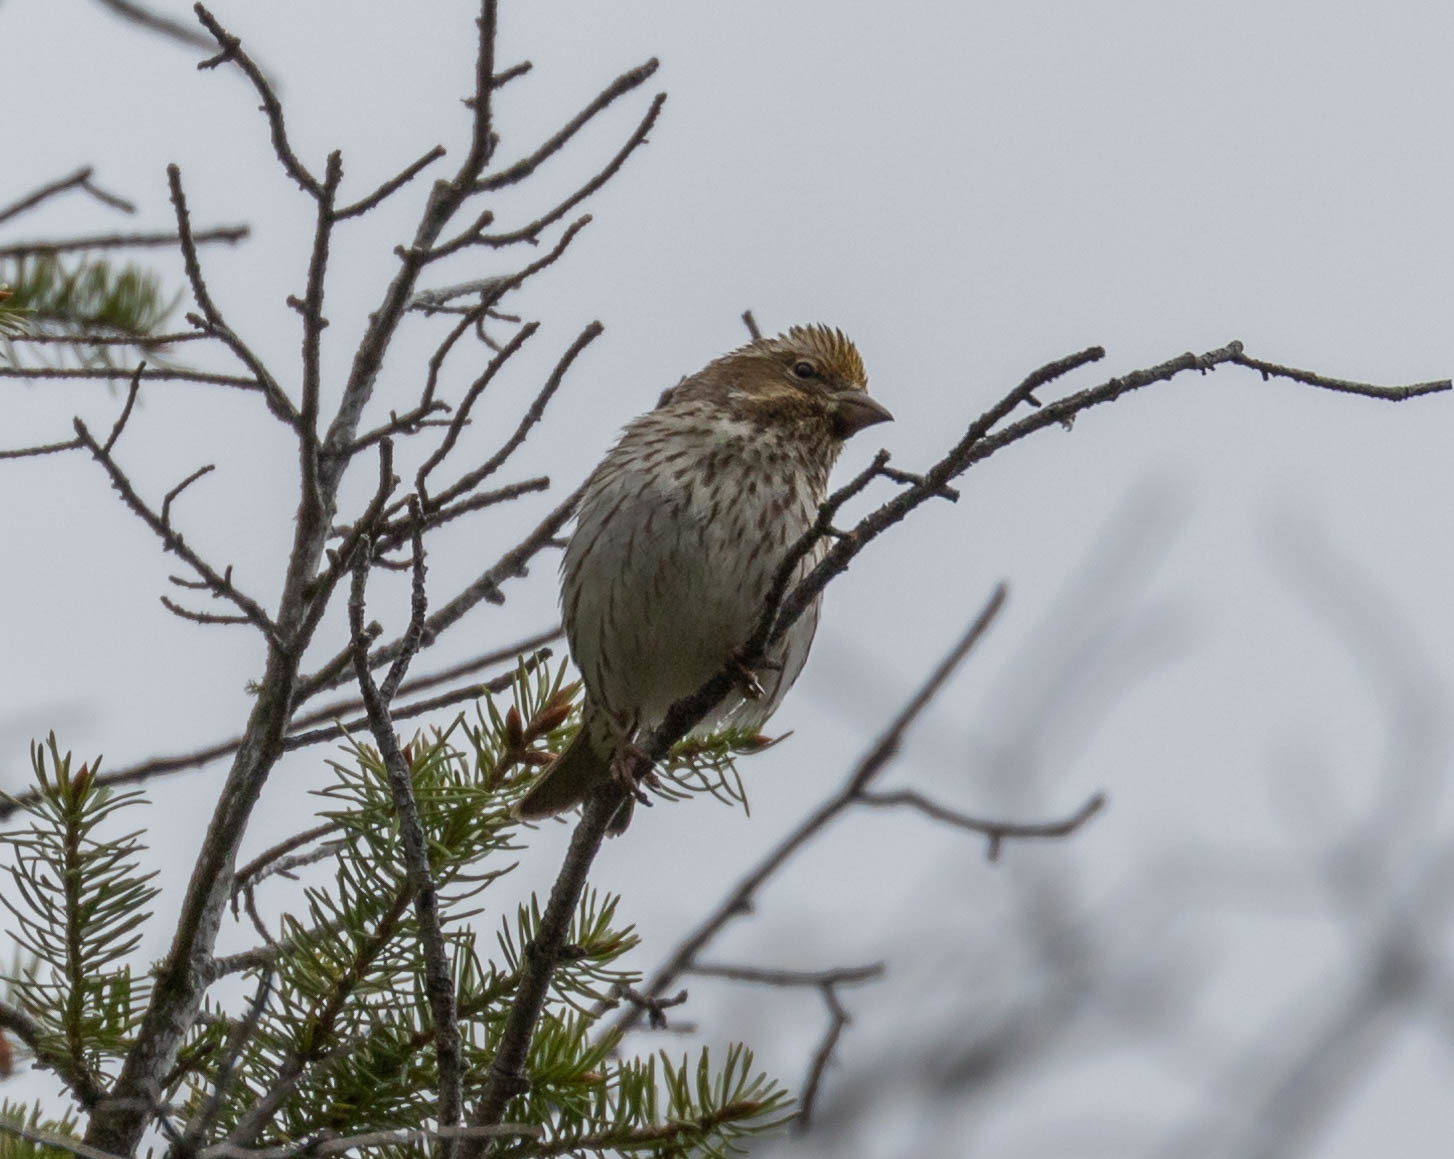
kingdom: Animalia
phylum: Chordata
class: Aves
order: Passeriformes
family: Fringillidae
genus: Haemorhous
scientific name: Haemorhous cassinii
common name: Cassin's finch
